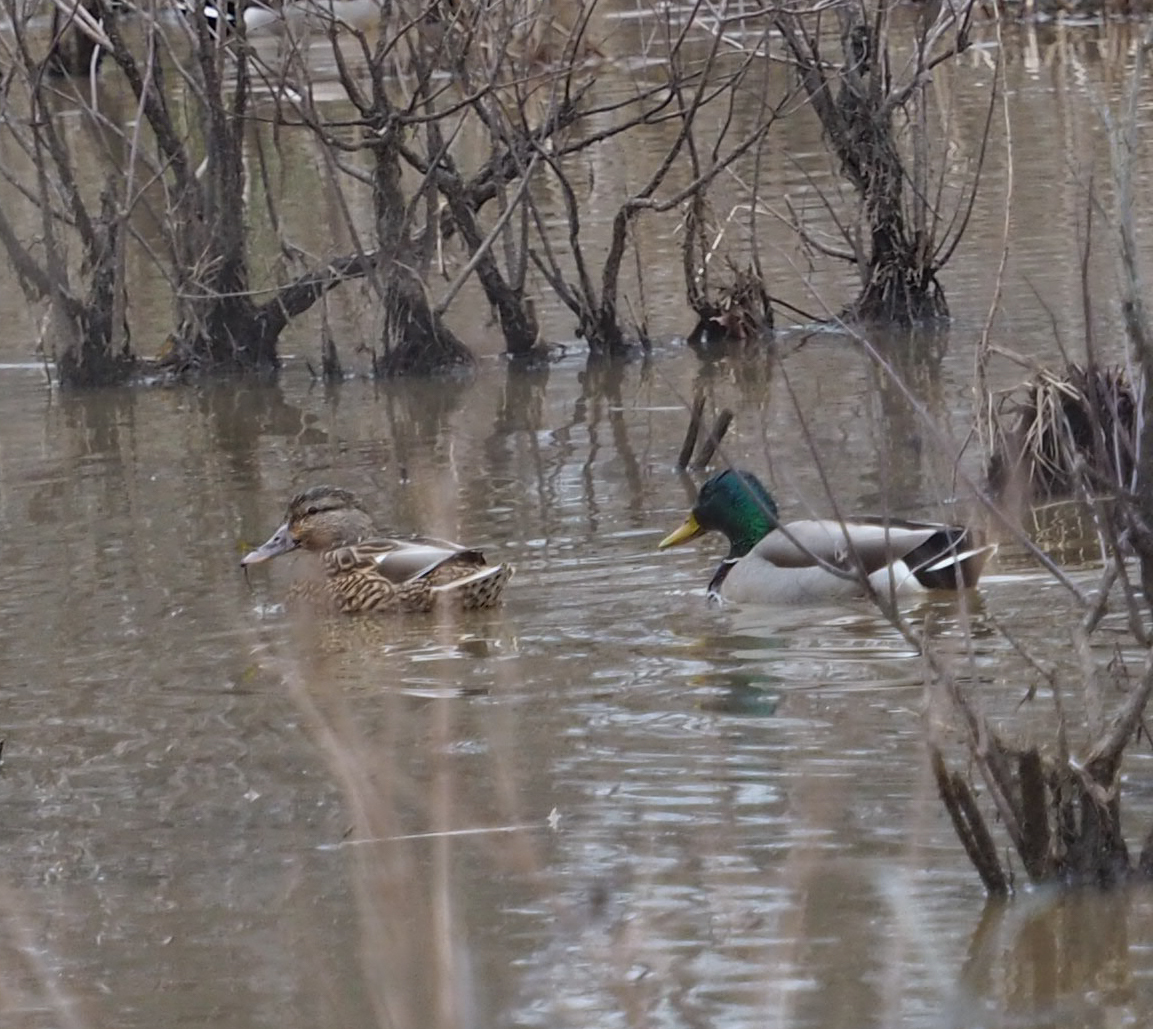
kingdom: Animalia
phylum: Chordata
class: Aves
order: Anseriformes
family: Anatidae
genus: Anas
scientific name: Anas platyrhynchos
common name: Mallard
